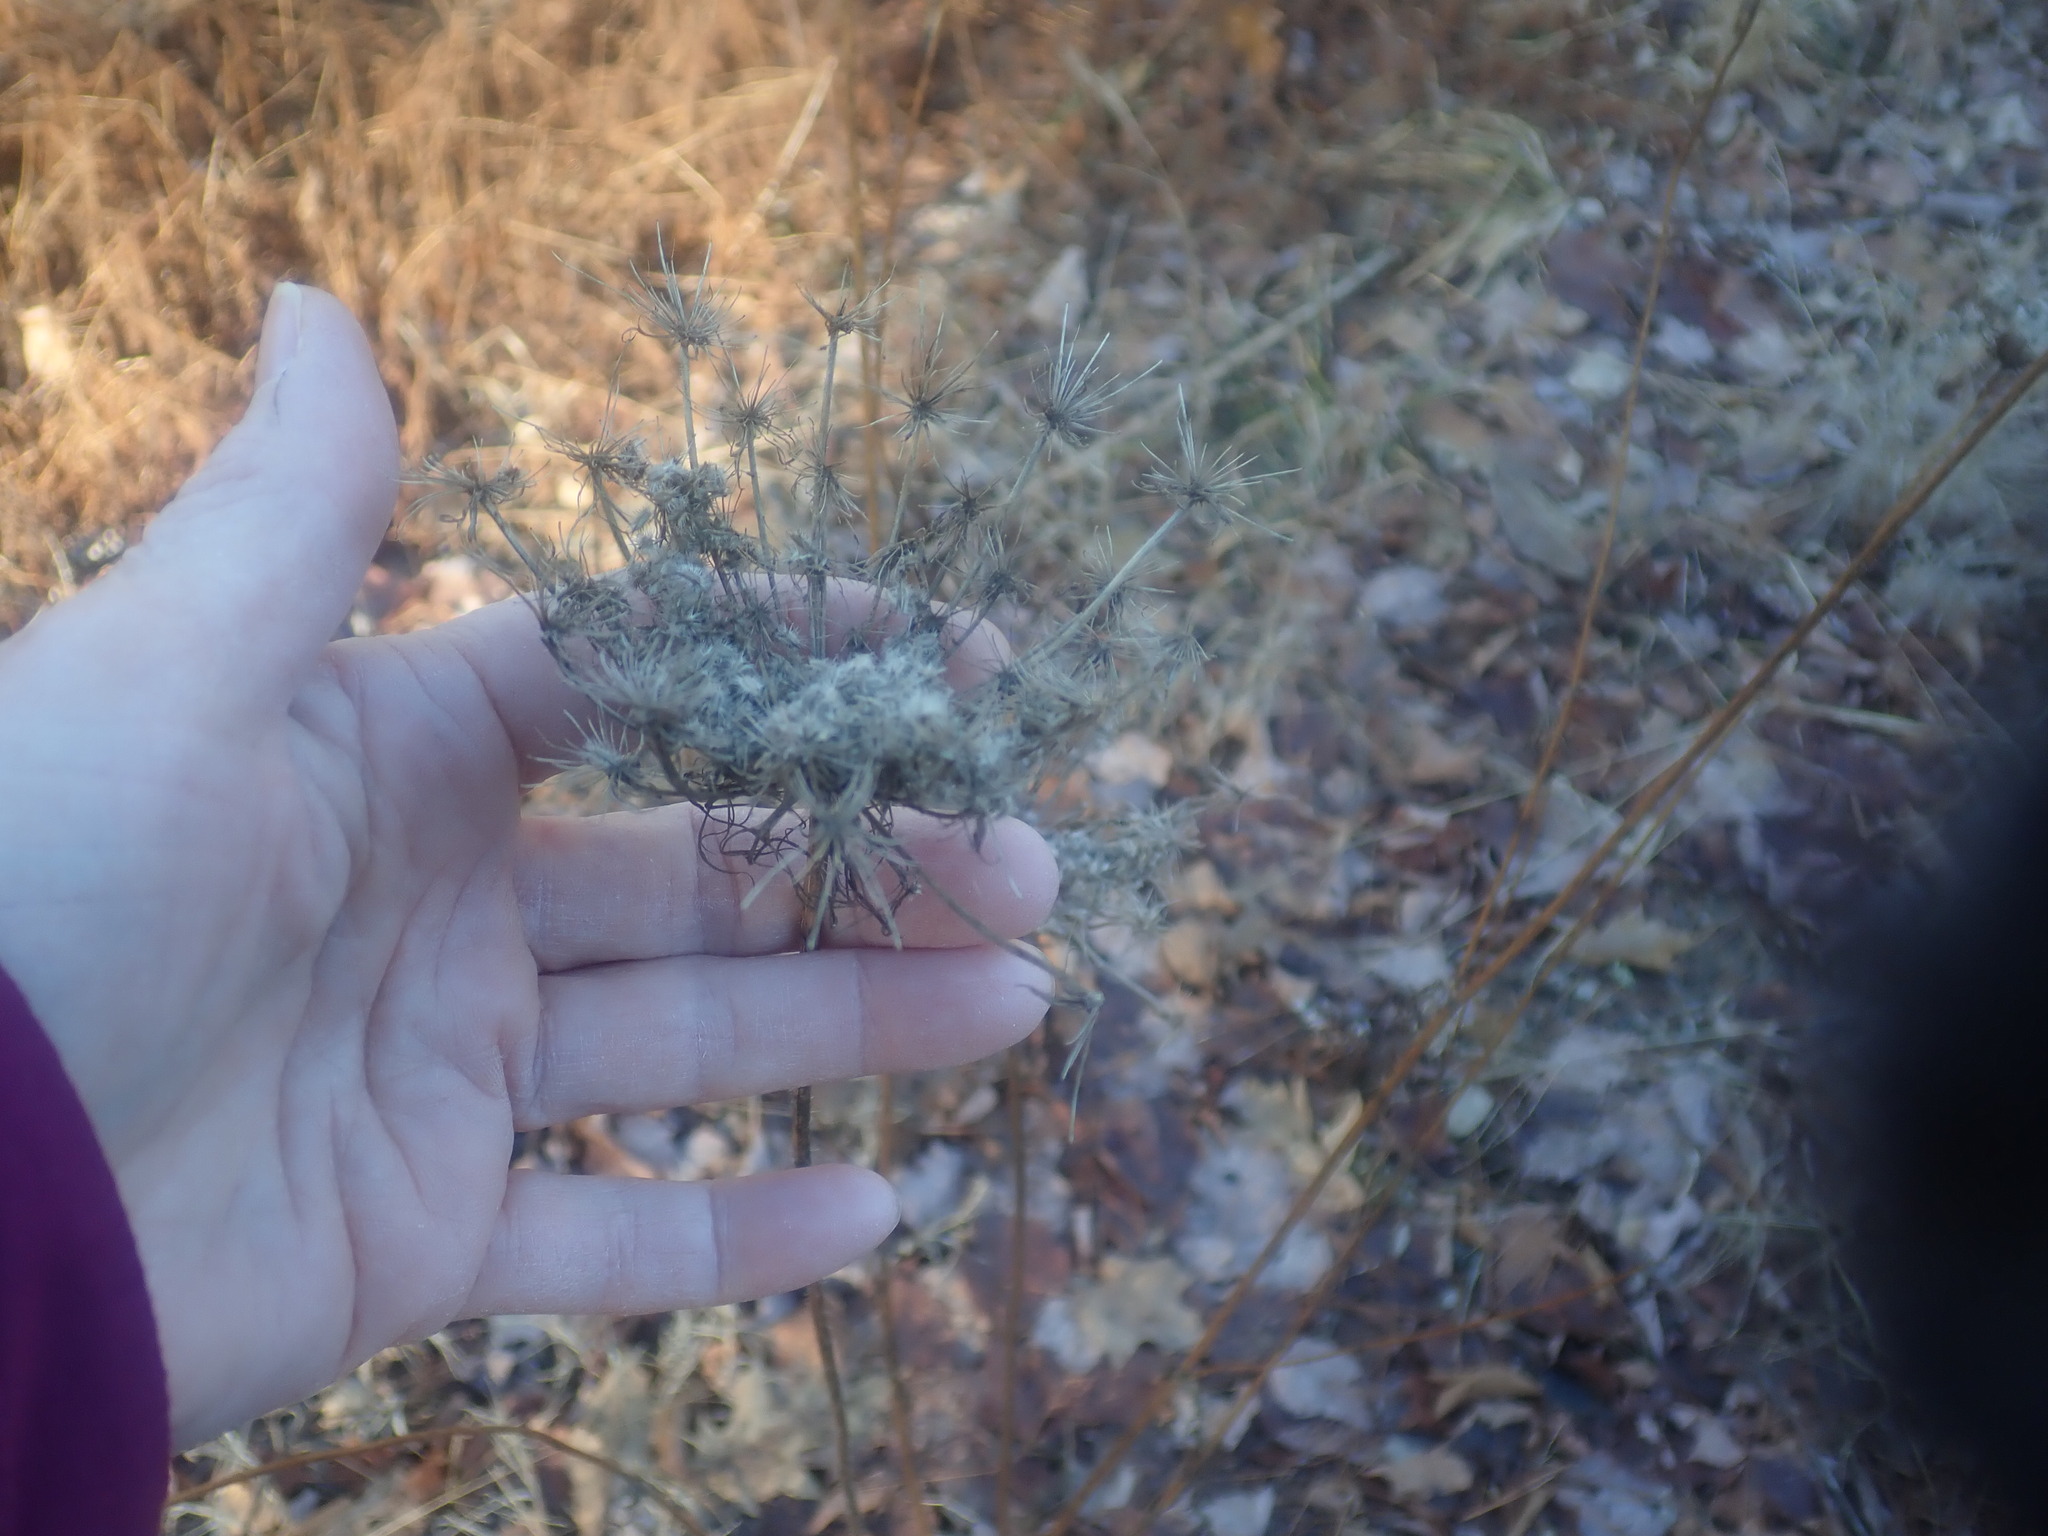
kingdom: Plantae
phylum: Tracheophyta
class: Magnoliopsida
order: Apiales
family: Apiaceae
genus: Daucus
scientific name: Daucus carota
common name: Wild carrot
